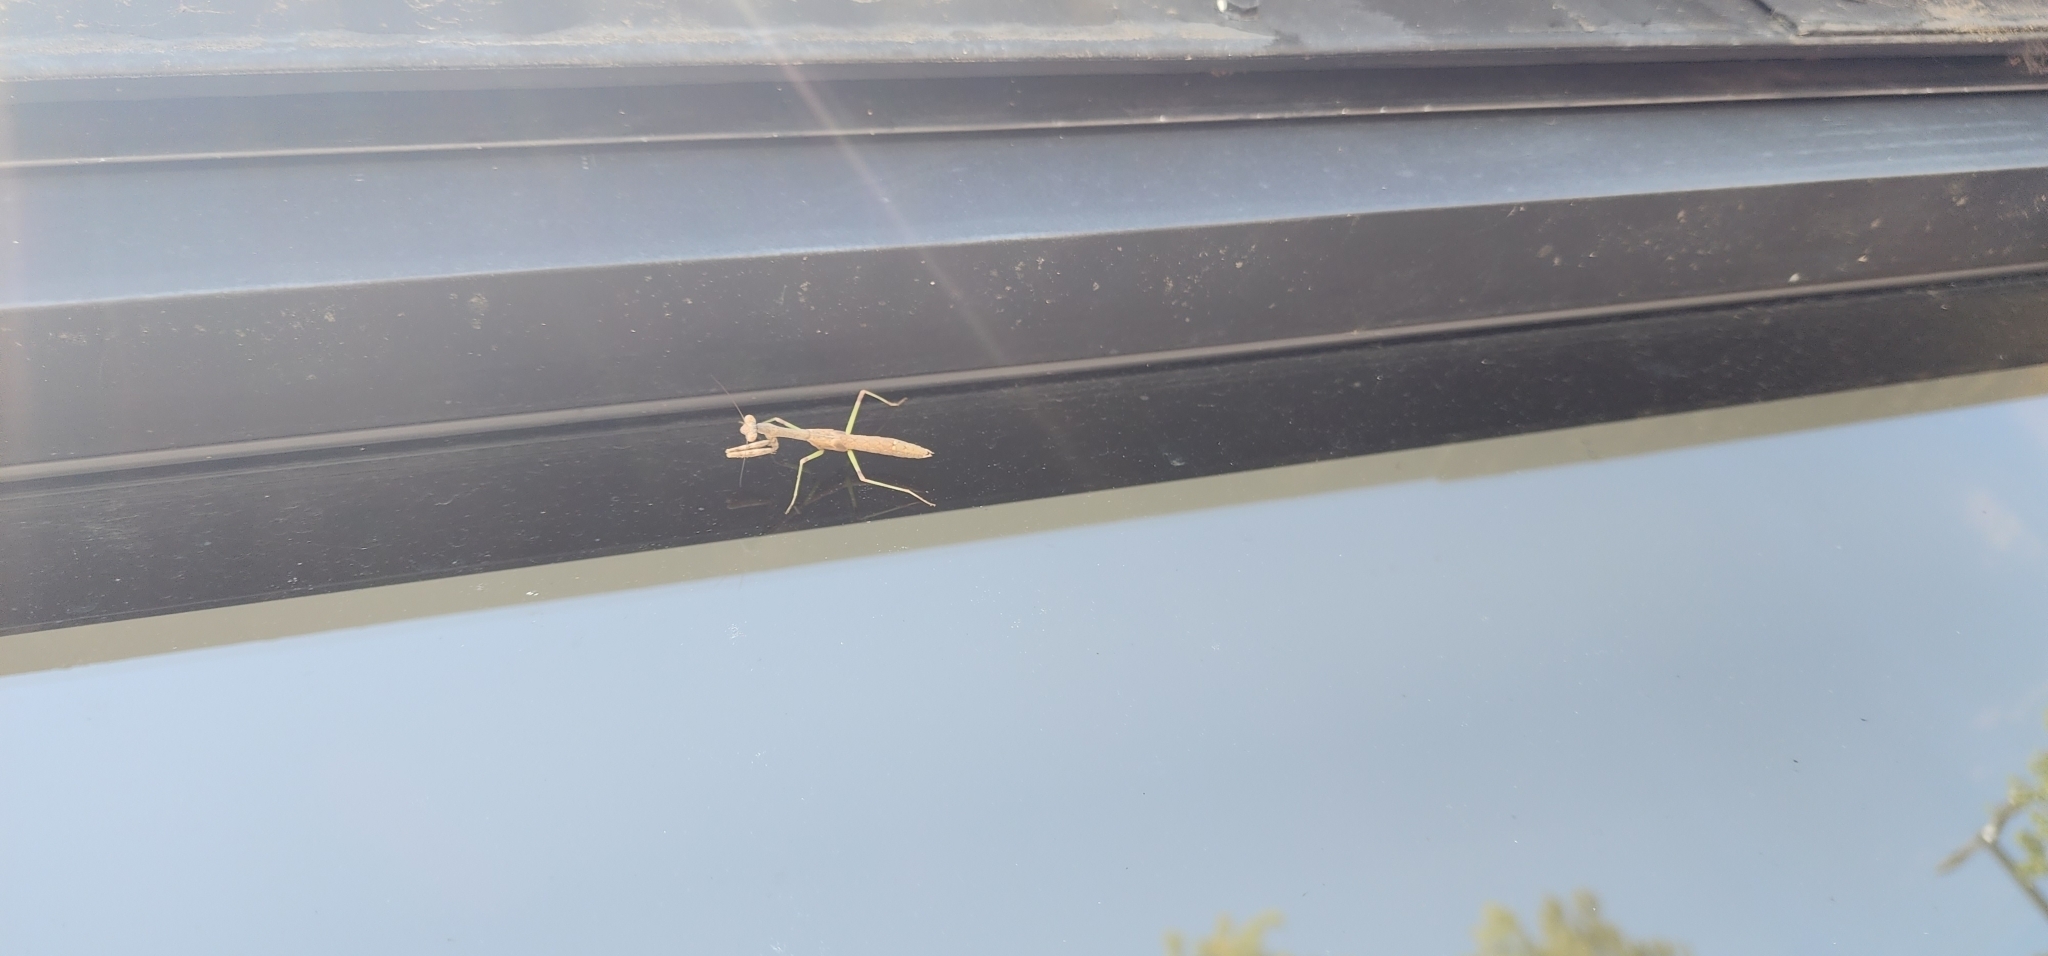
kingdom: Animalia
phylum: Arthropoda
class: Insecta
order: Mantodea
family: Mantidae
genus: Stagmomantis
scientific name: Stagmomantis carolina
